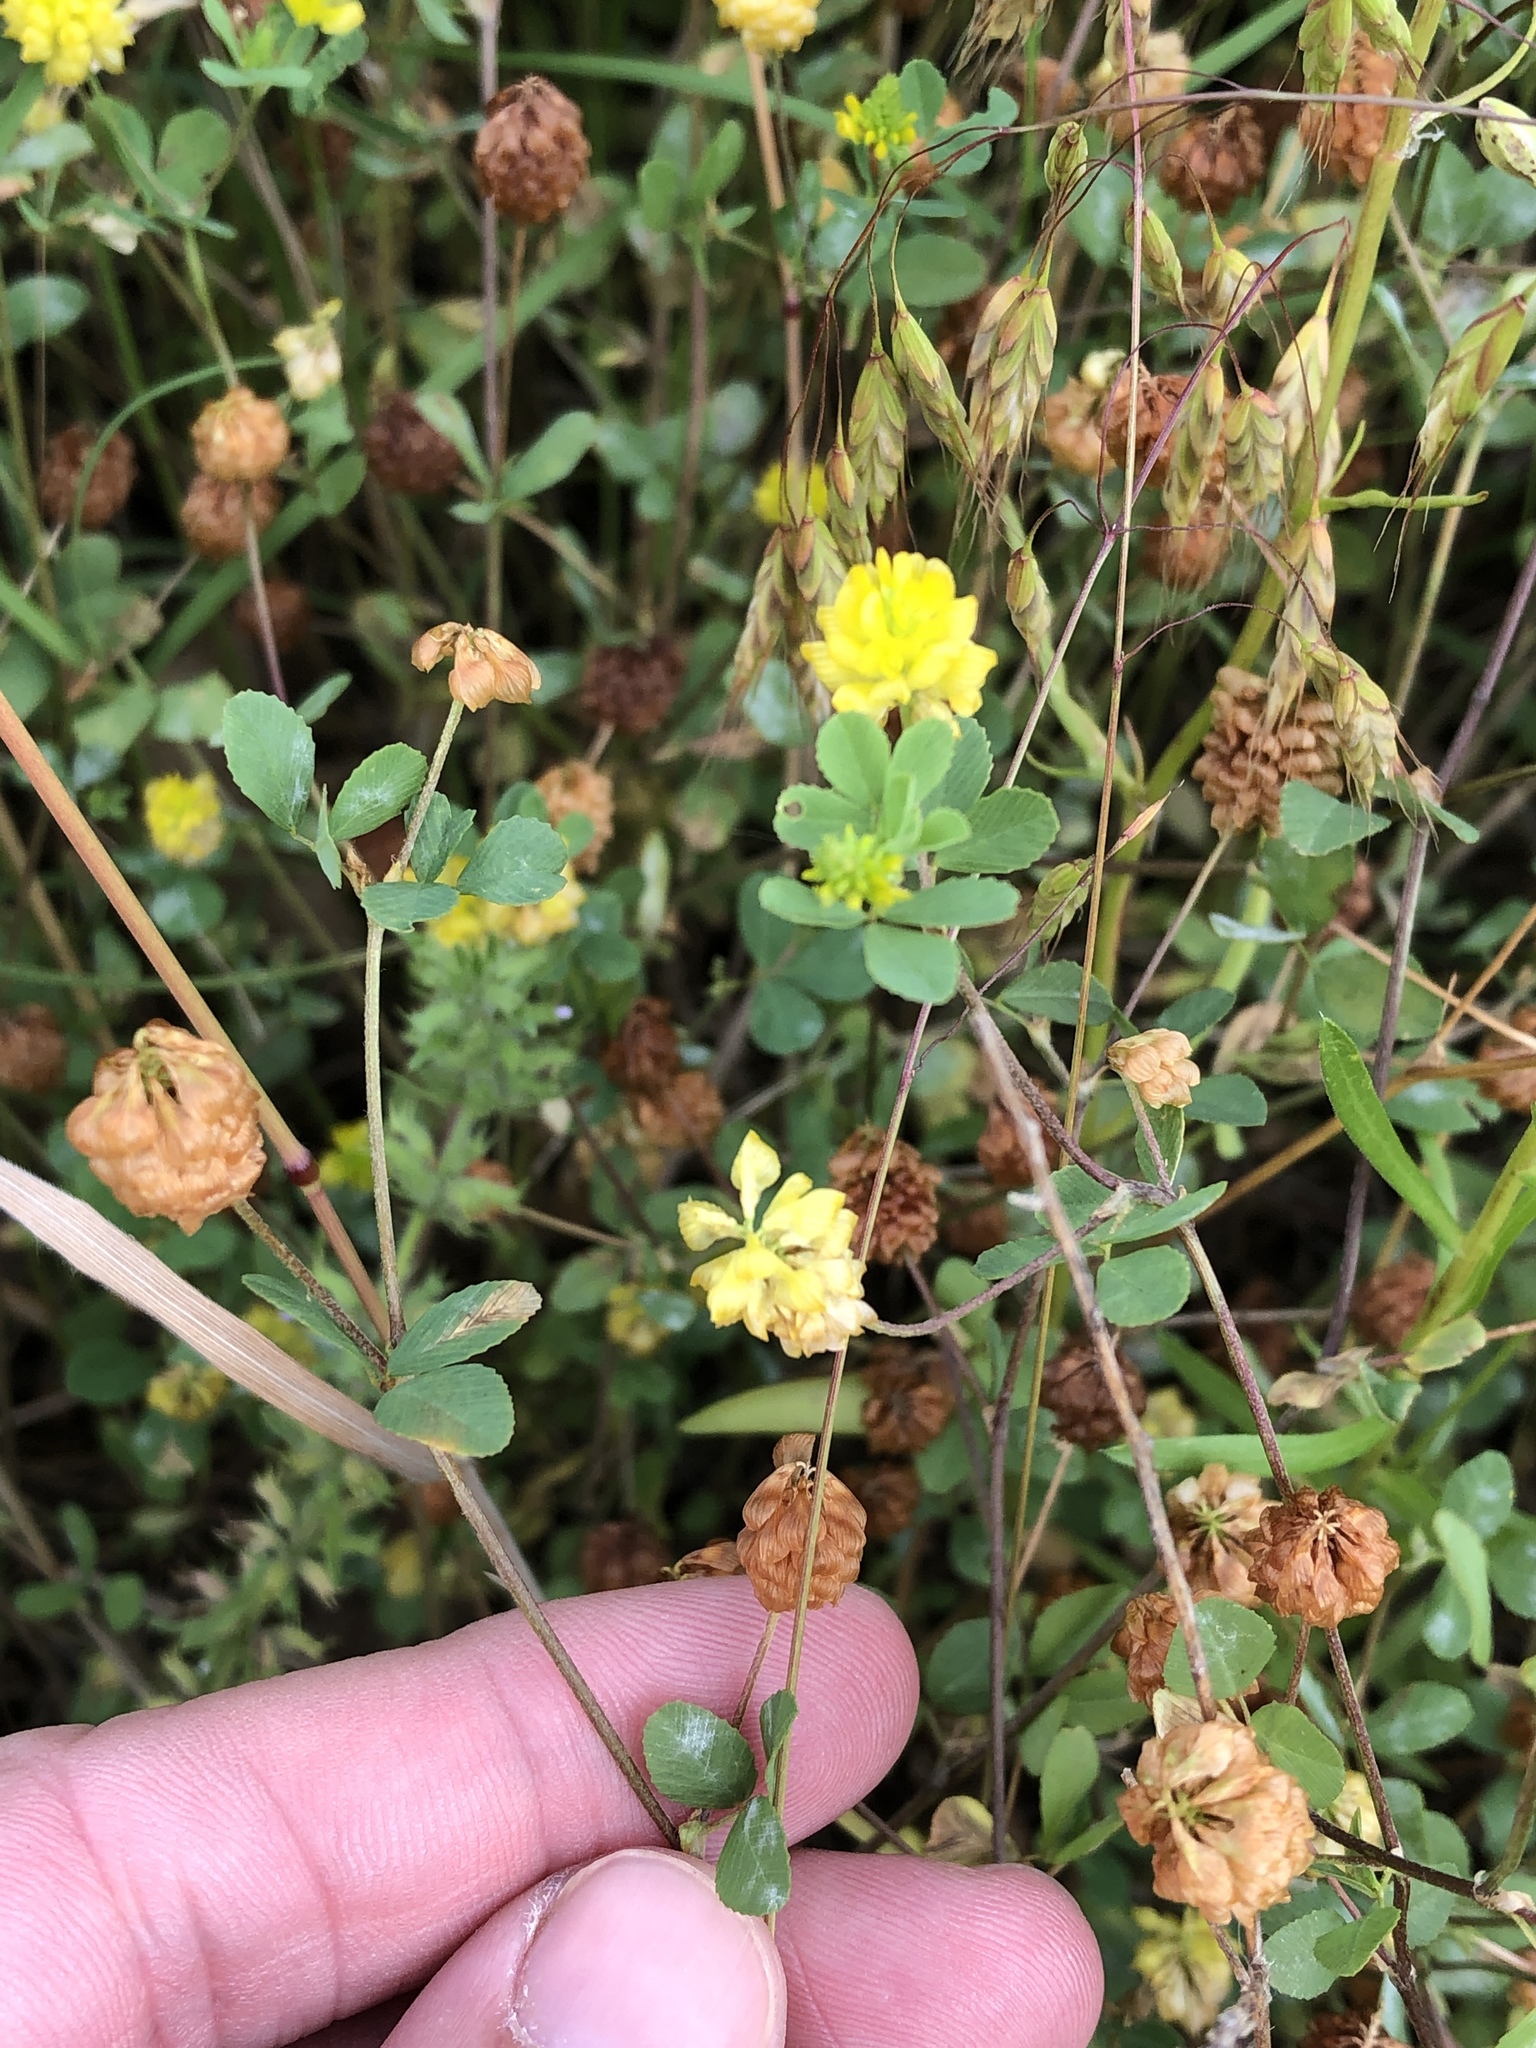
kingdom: Plantae
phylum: Tracheophyta
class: Magnoliopsida
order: Fabales
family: Fabaceae
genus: Trifolium
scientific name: Trifolium campestre
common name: Field clover
